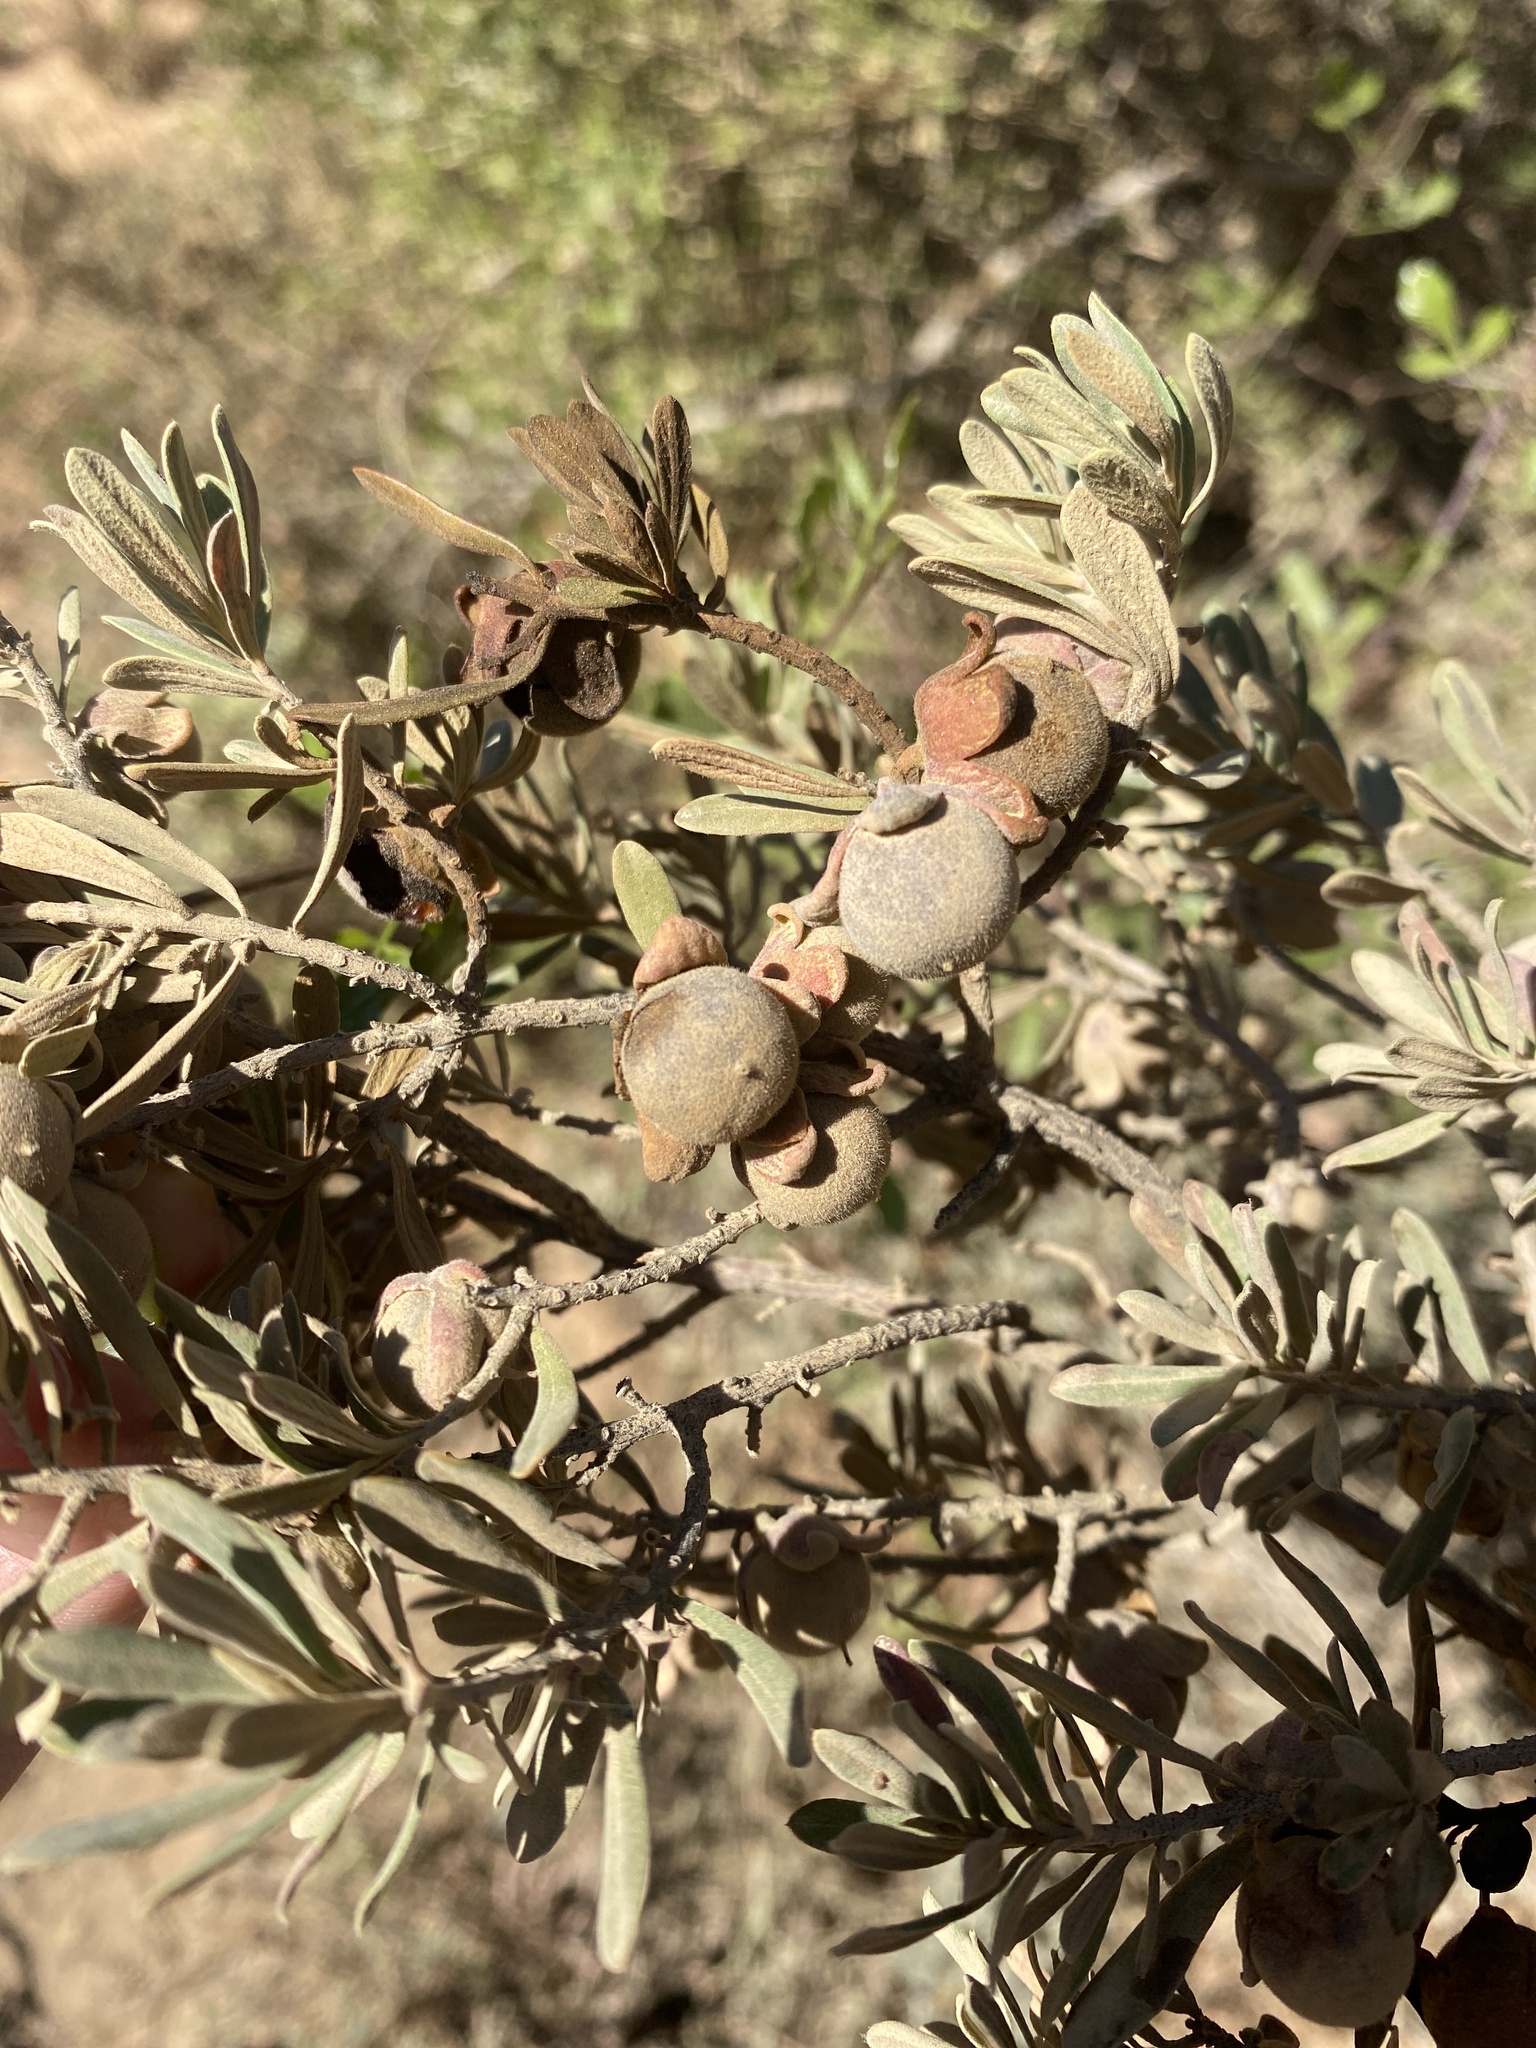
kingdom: Plantae
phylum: Tracheophyta
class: Magnoliopsida
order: Ericales
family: Ebenaceae
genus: Diospyros
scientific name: Diospyros pubescens
